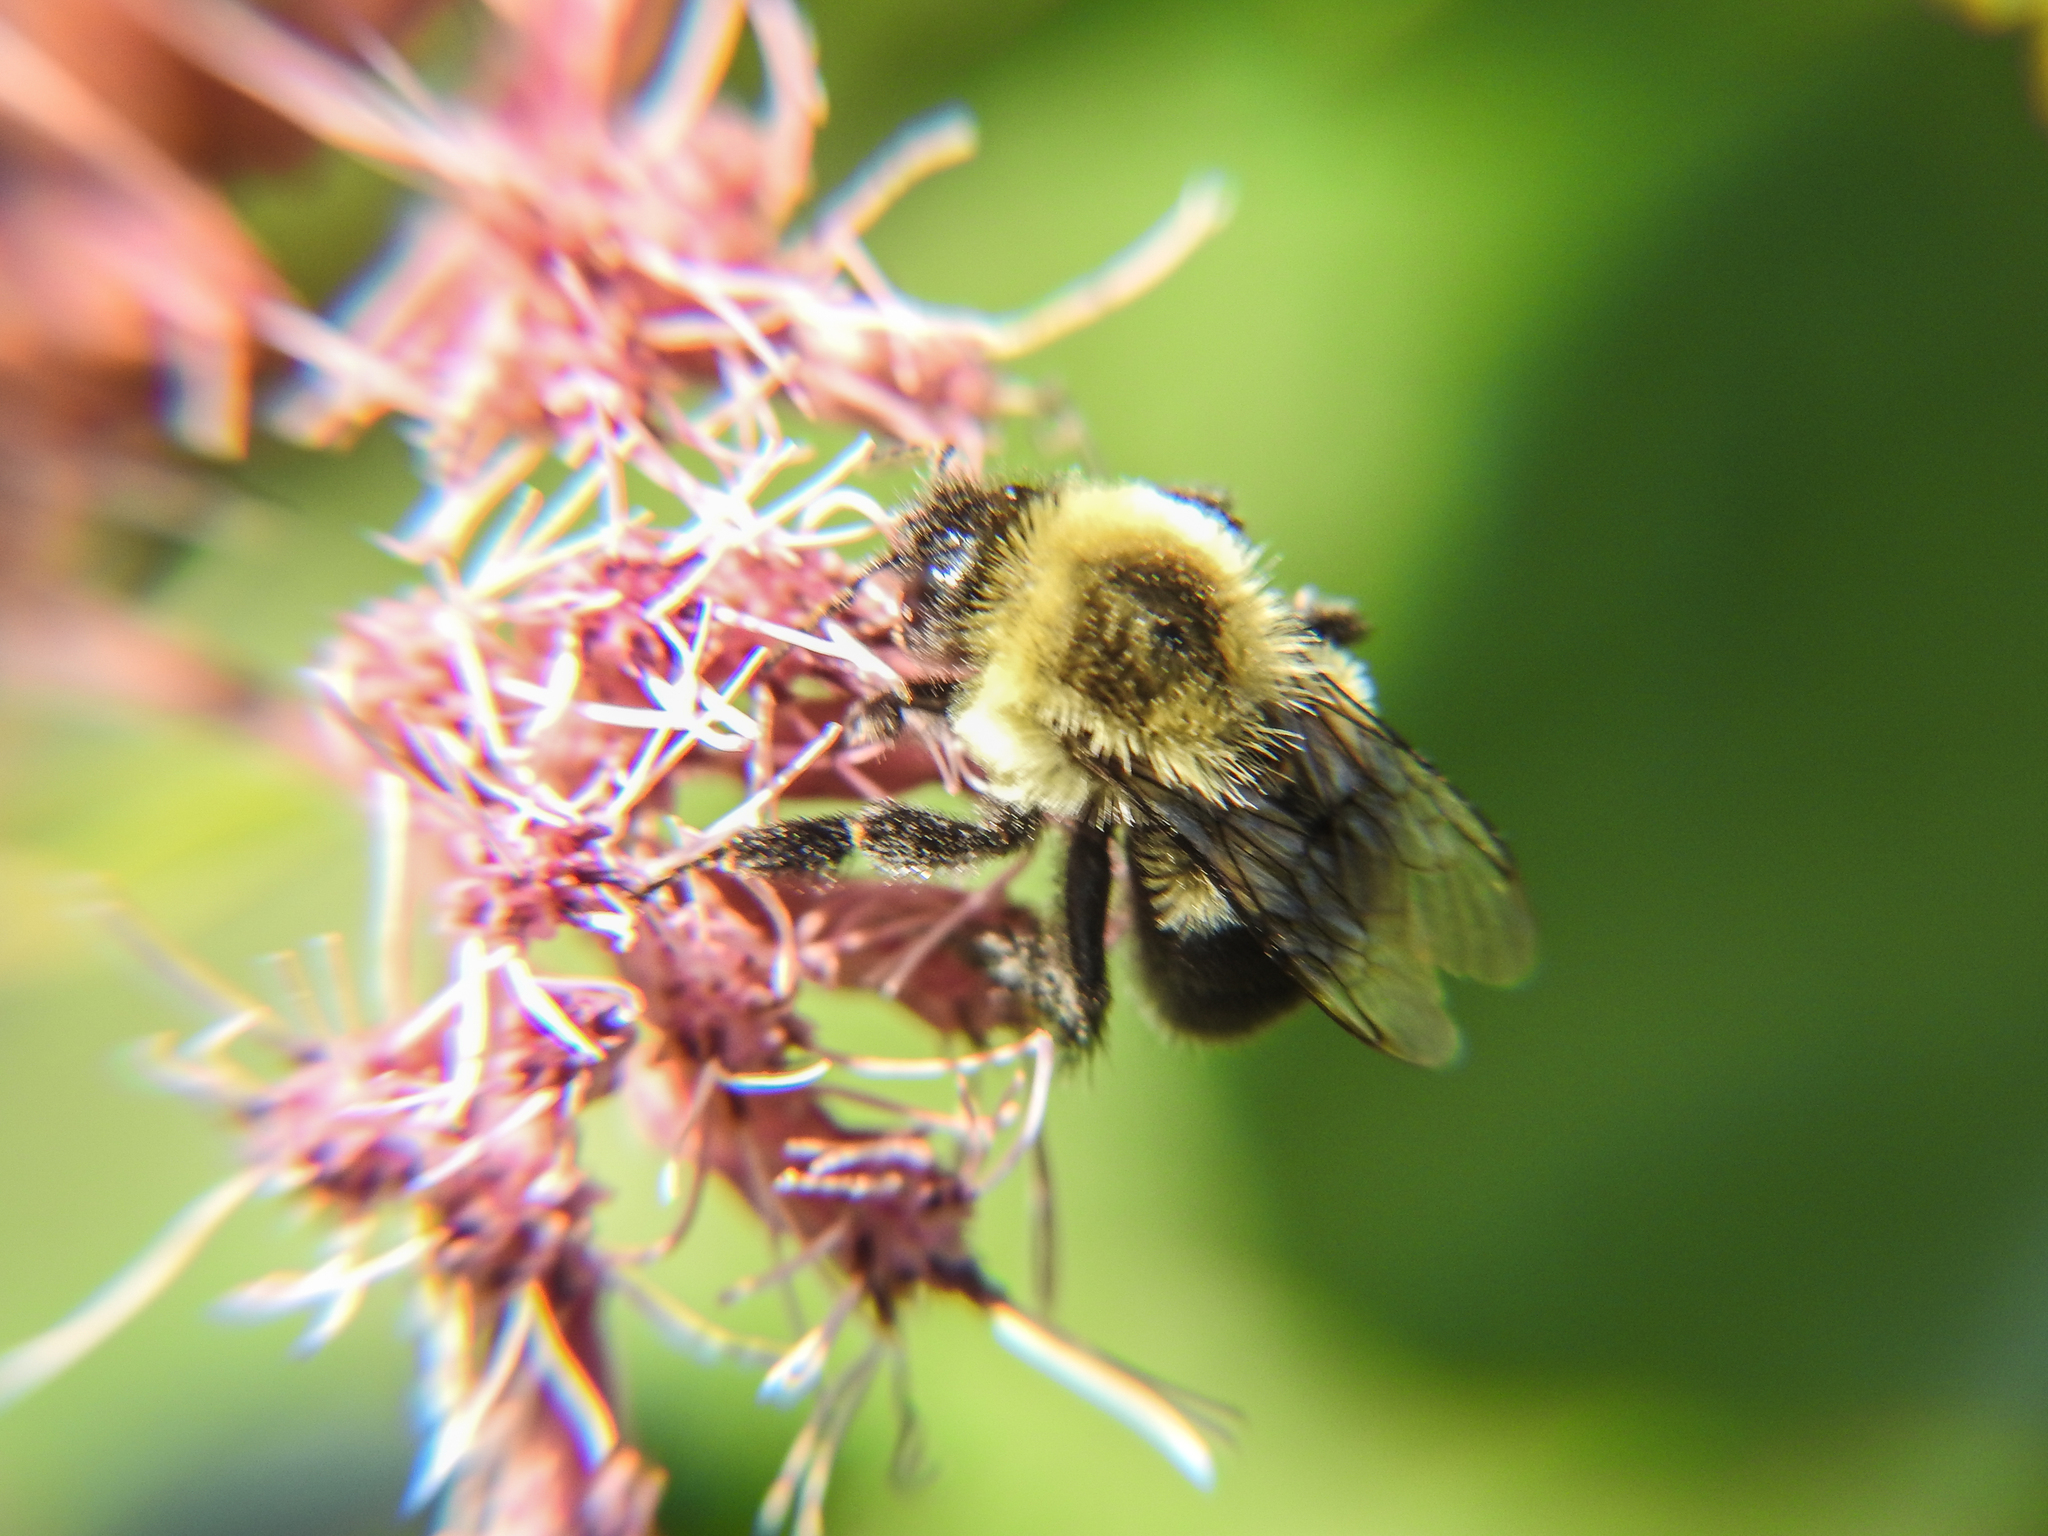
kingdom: Animalia
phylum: Arthropoda
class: Insecta
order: Hymenoptera
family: Apidae
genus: Bombus
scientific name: Bombus impatiens
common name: Common eastern bumble bee
